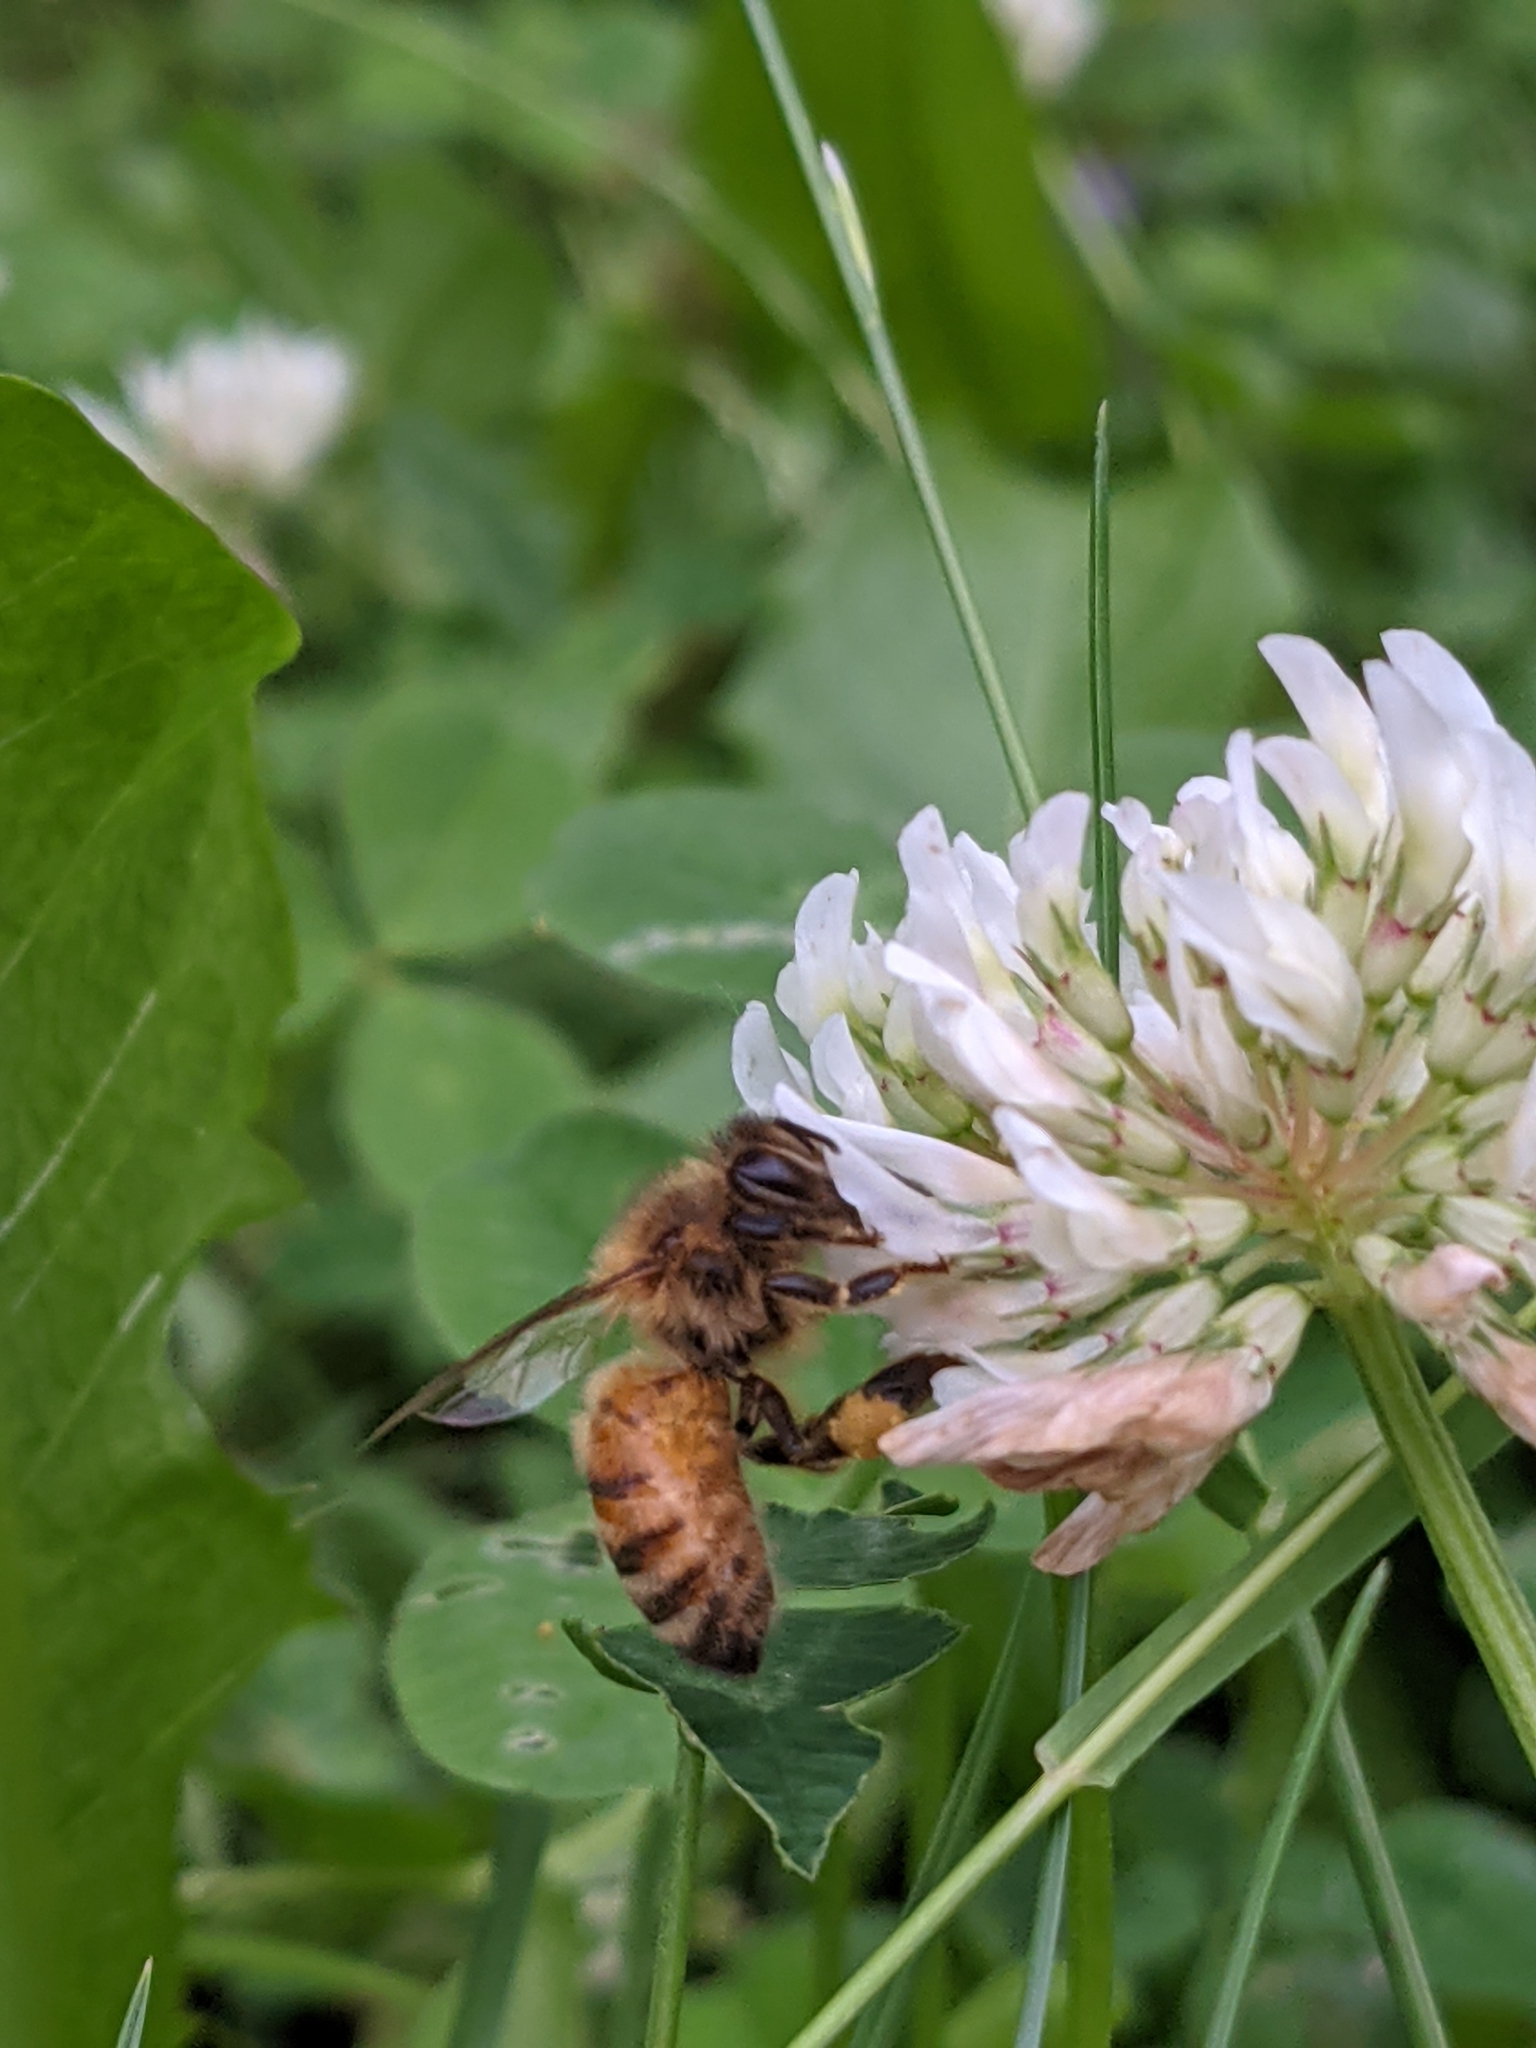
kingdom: Animalia
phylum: Arthropoda
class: Insecta
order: Hymenoptera
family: Apidae
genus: Apis
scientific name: Apis mellifera
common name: Honey bee
